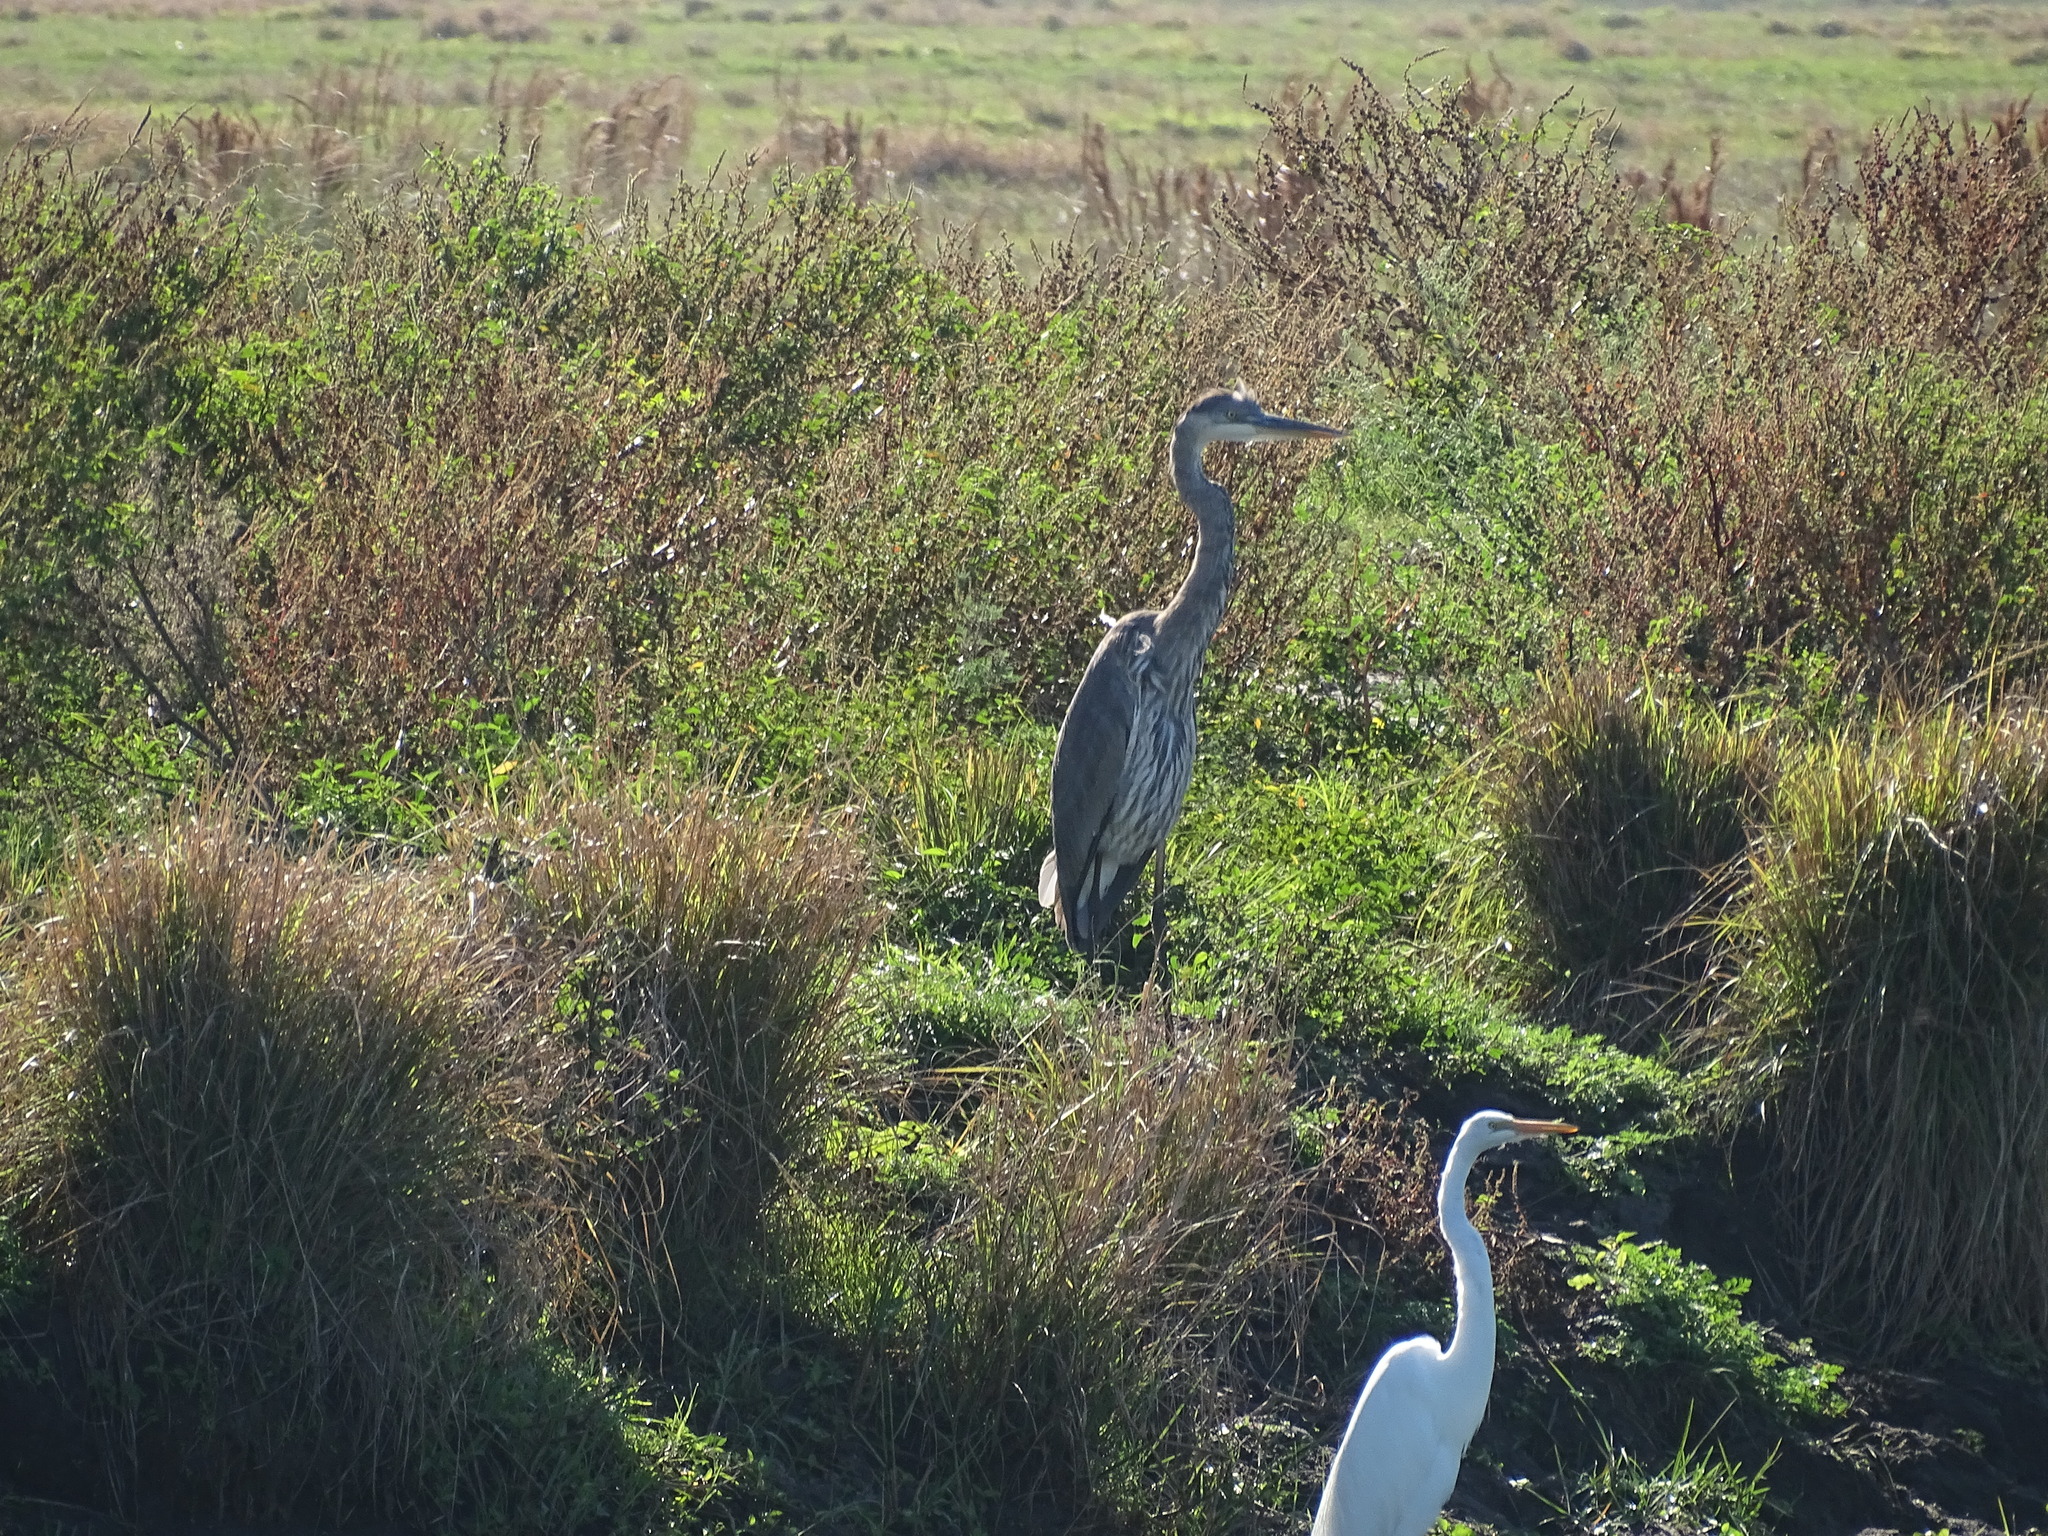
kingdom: Animalia
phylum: Chordata
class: Aves
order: Pelecaniformes
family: Ardeidae
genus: Ardea
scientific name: Ardea herodias
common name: Great blue heron
